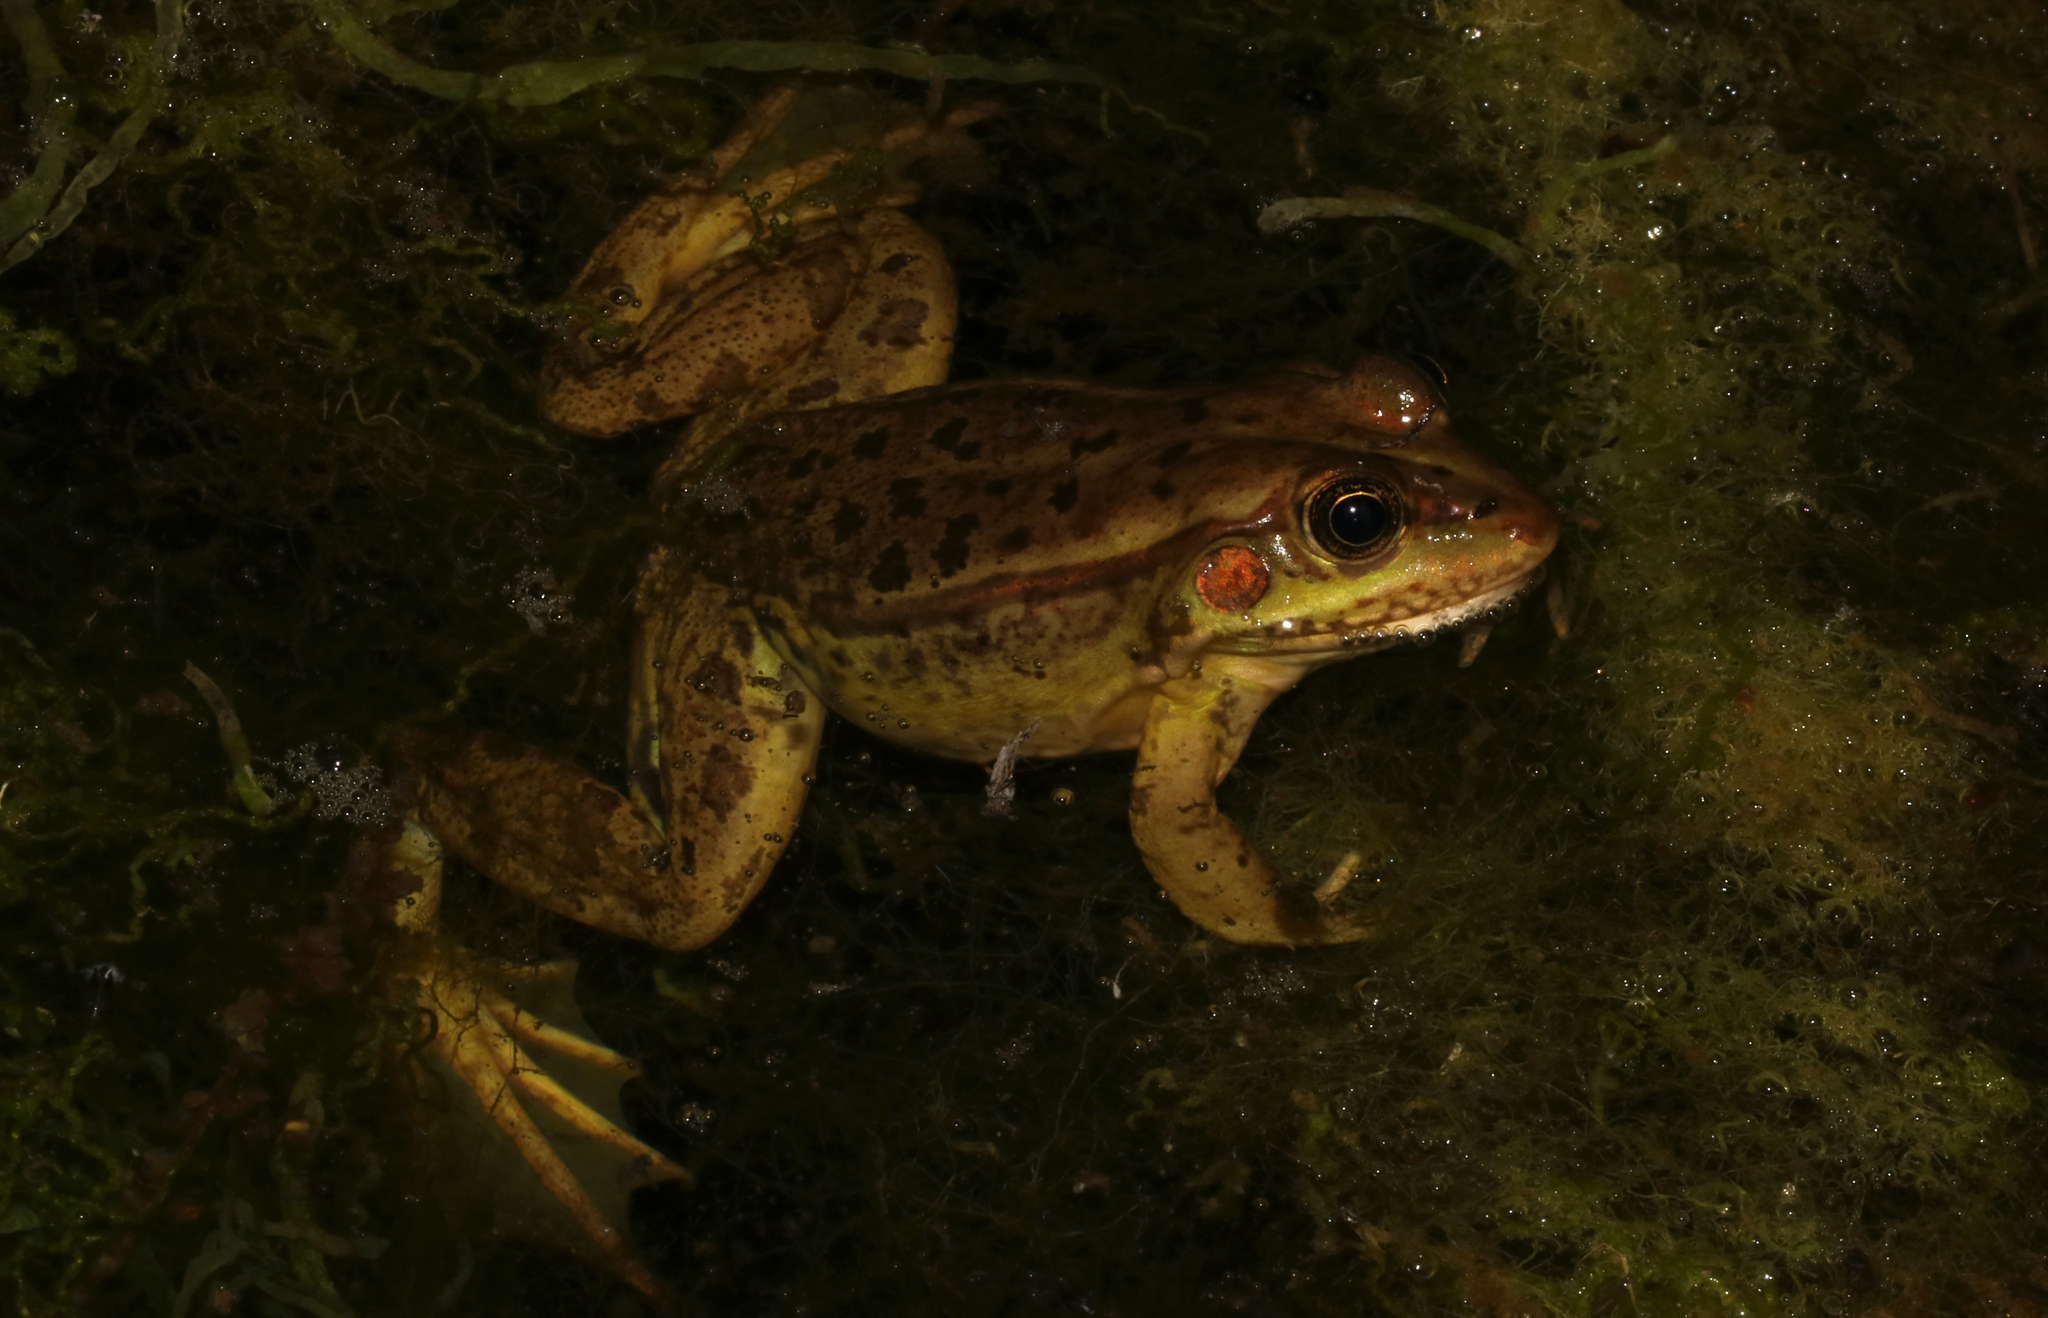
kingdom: Animalia
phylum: Chordata
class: Amphibia
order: Anura
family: Ranidae
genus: Pelophylax
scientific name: Pelophylax epeiroticus
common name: Epirus water frog
